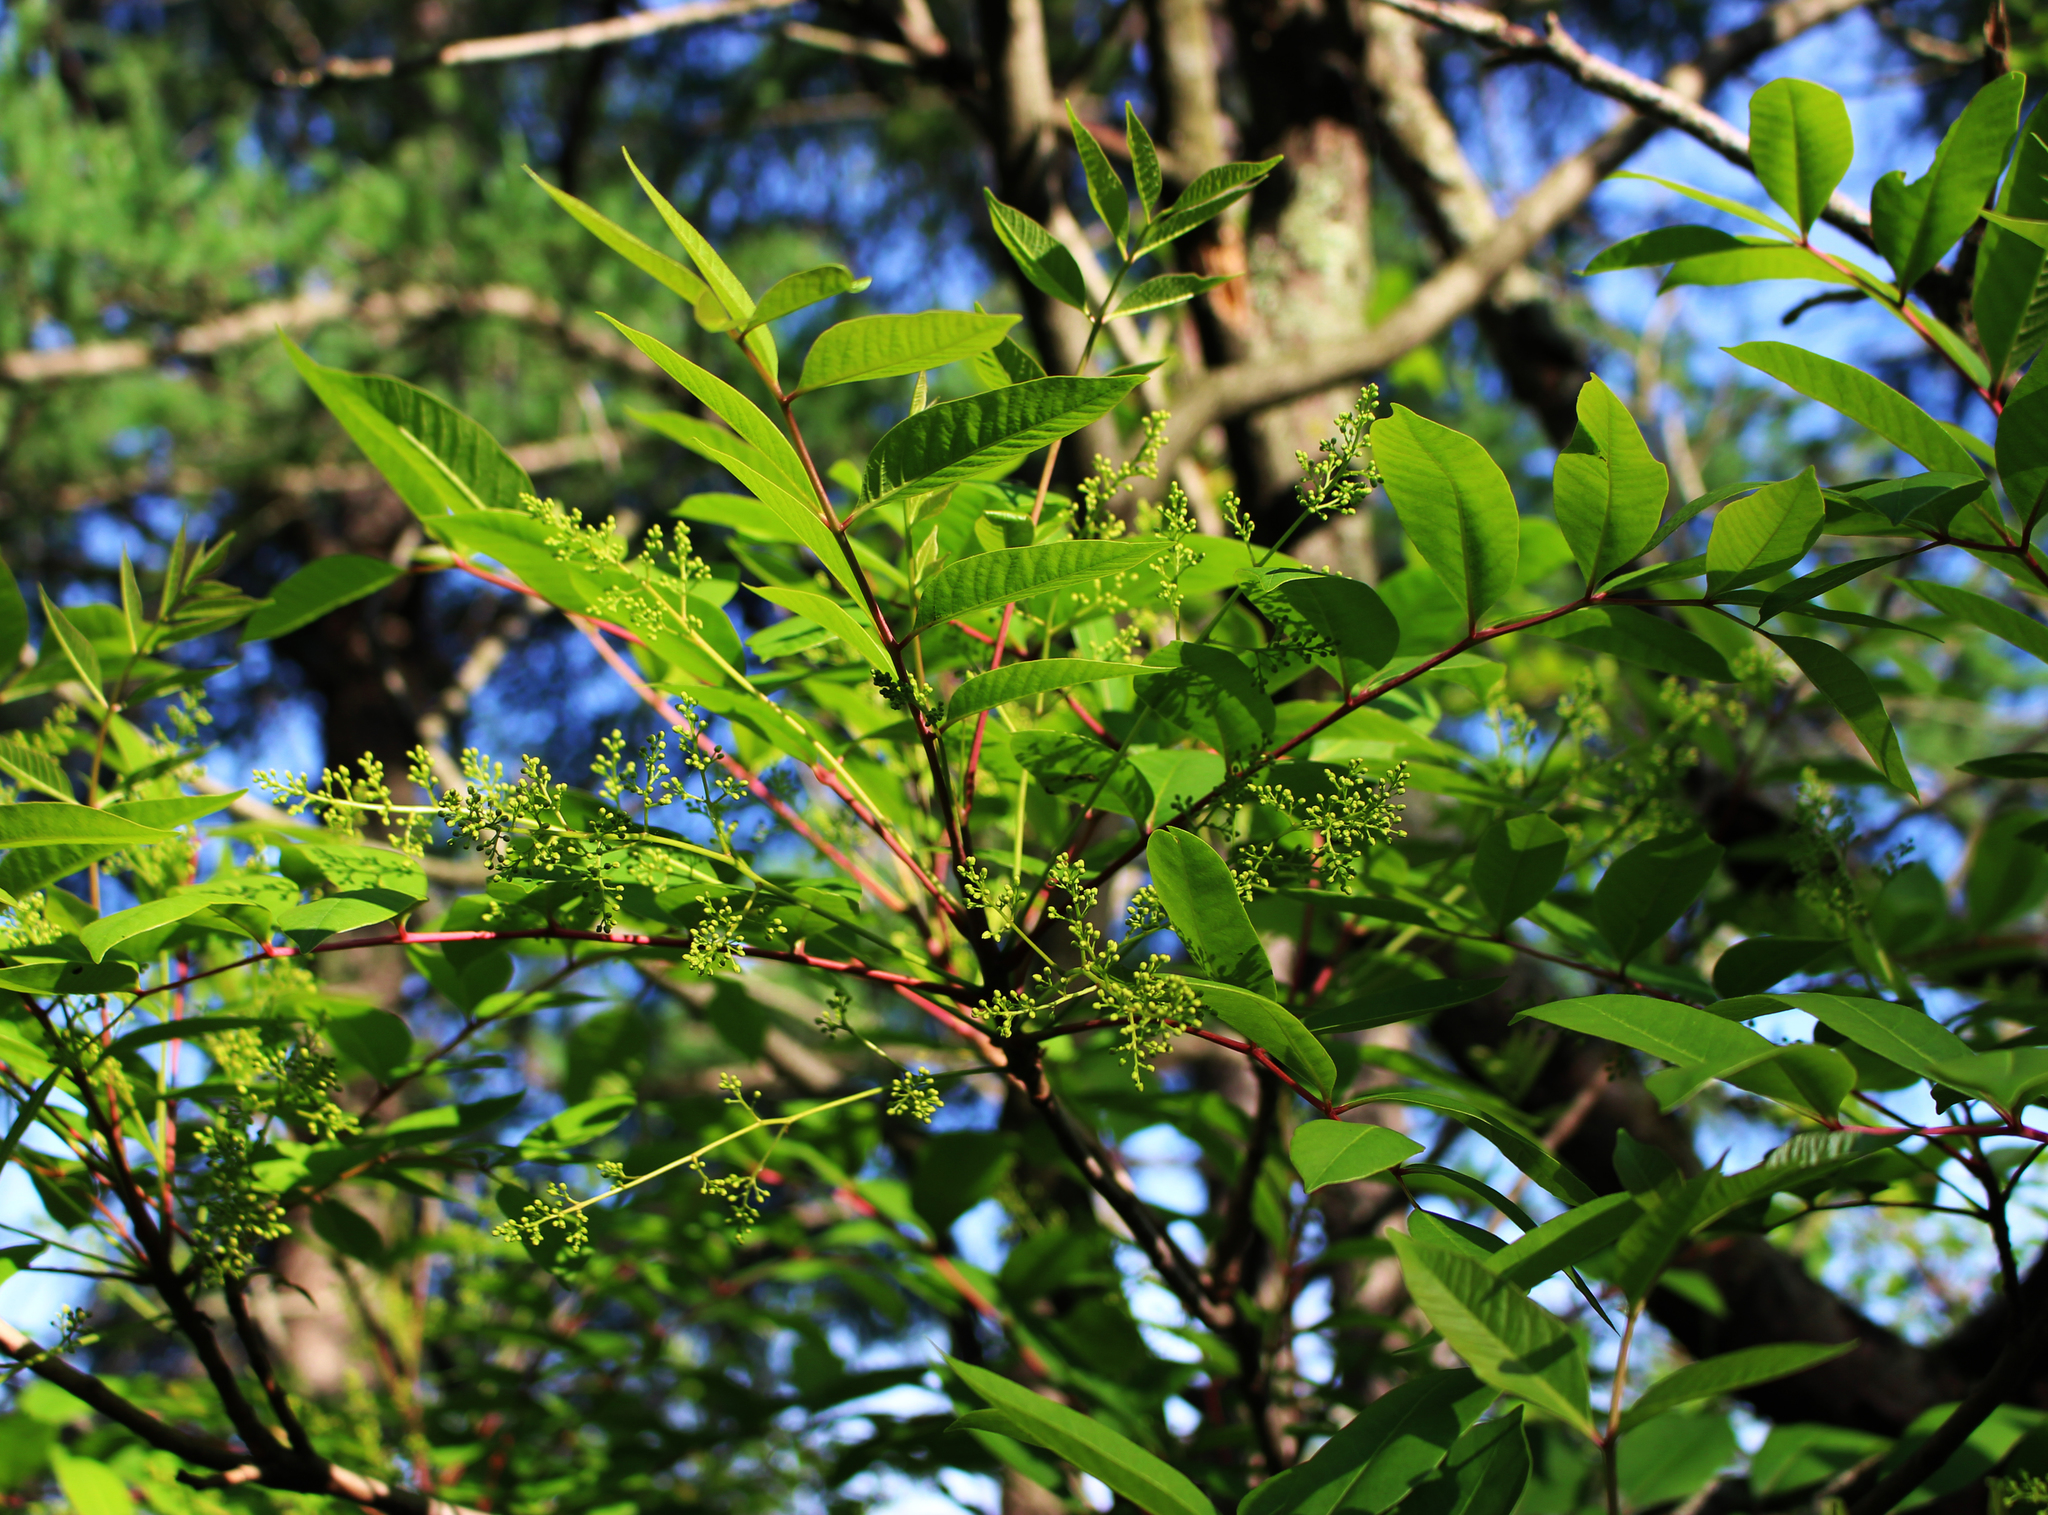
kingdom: Plantae
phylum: Tracheophyta
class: Magnoliopsida
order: Sapindales
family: Anacardiaceae
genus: Toxicodendron
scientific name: Toxicodendron vernix
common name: Poison sumac
